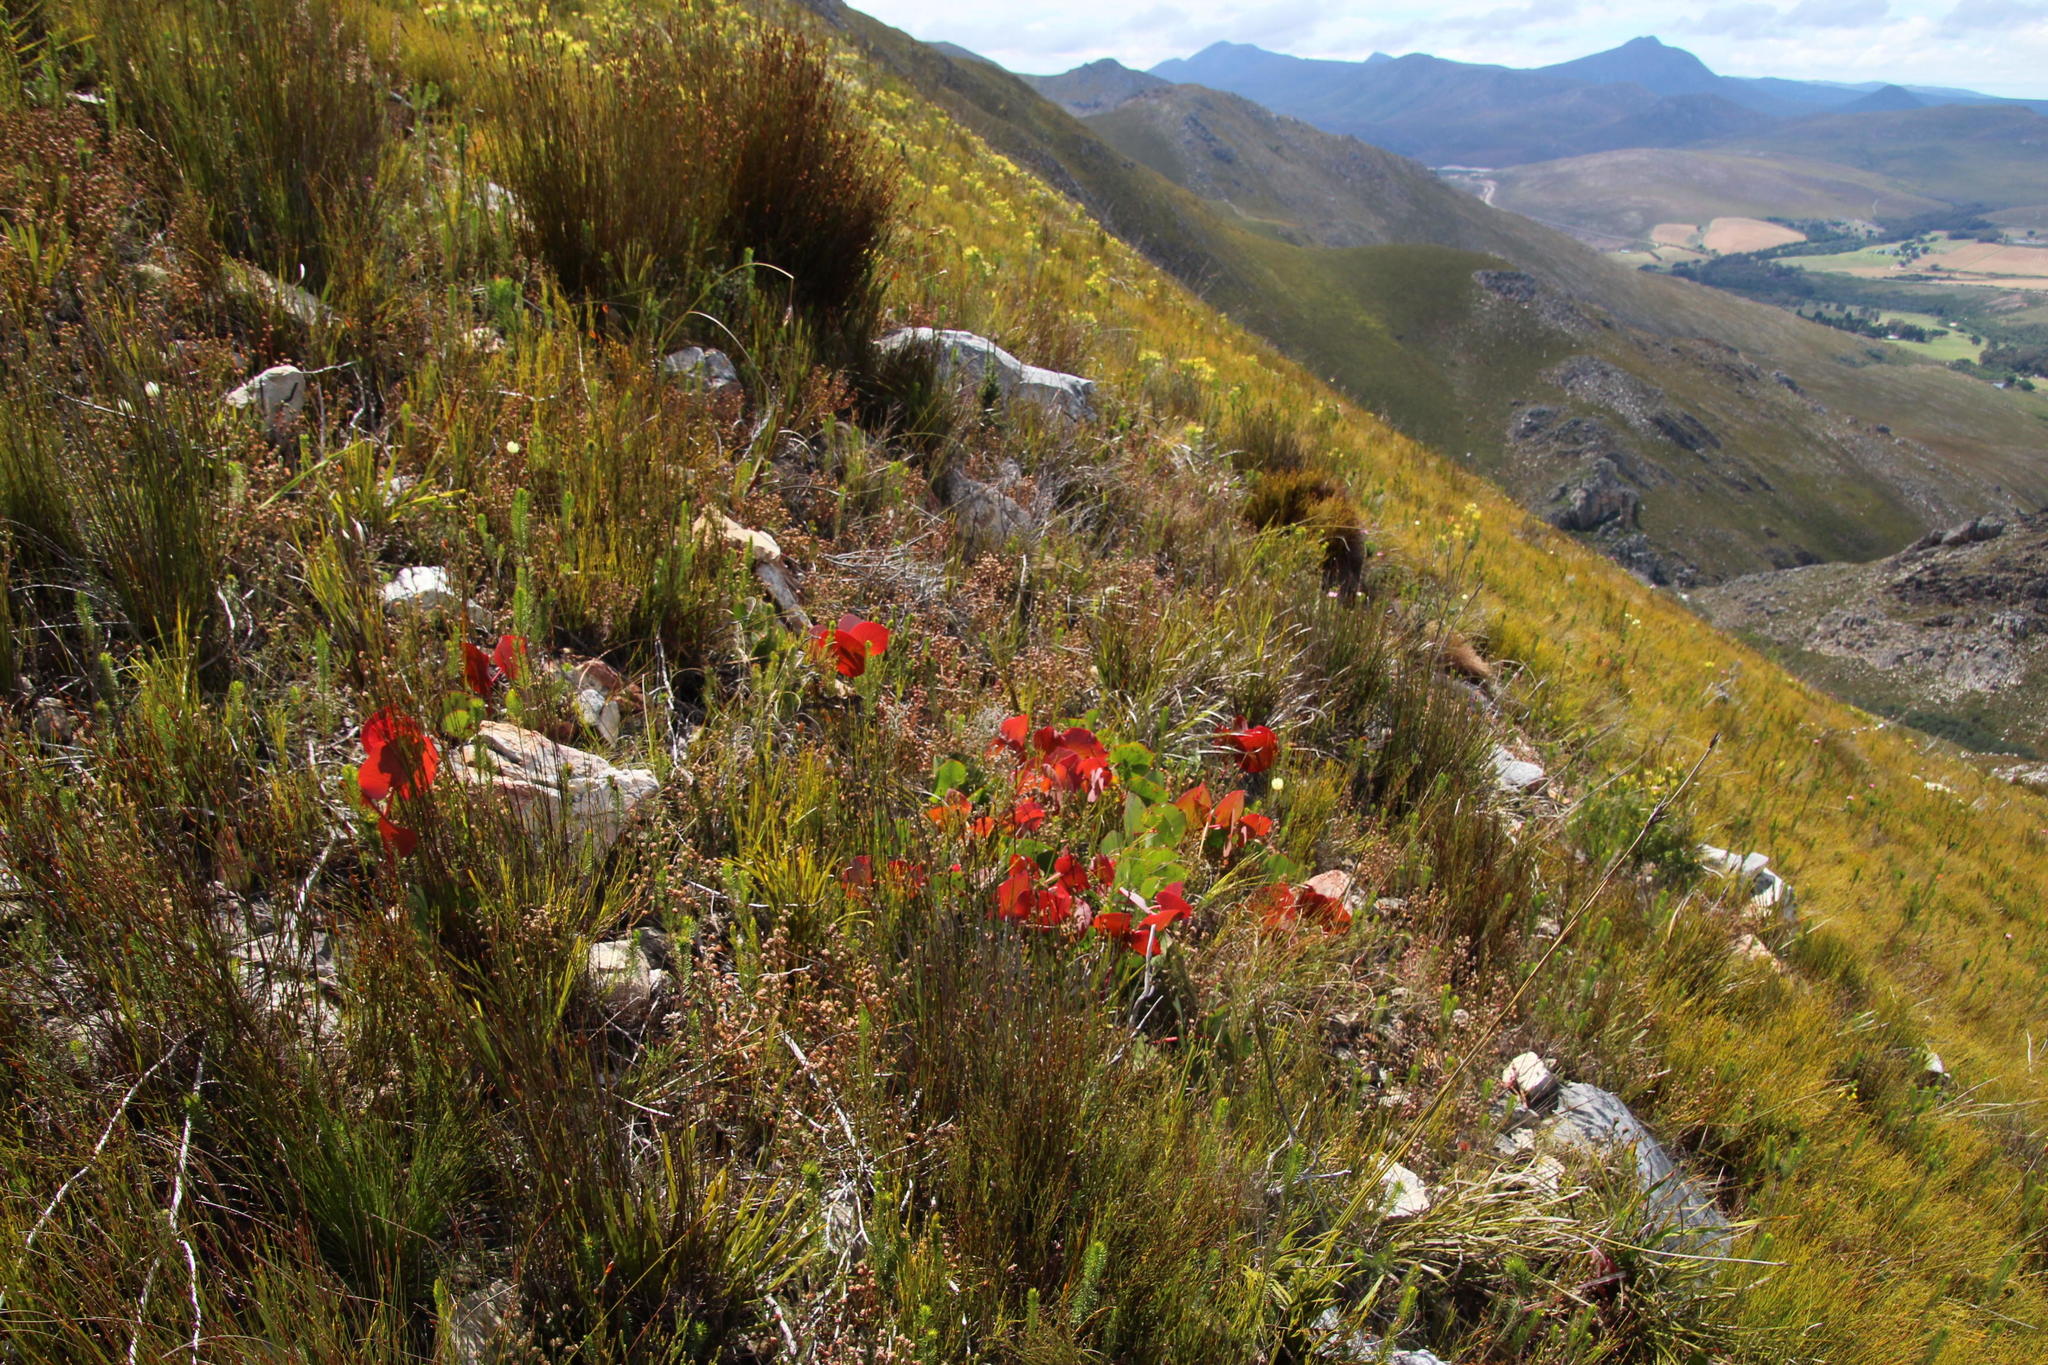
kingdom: Plantae
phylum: Tracheophyta
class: Magnoliopsida
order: Proteales
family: Proteaceae
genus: Protea
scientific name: Protea cordata
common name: Heart-leaf sugarbush
